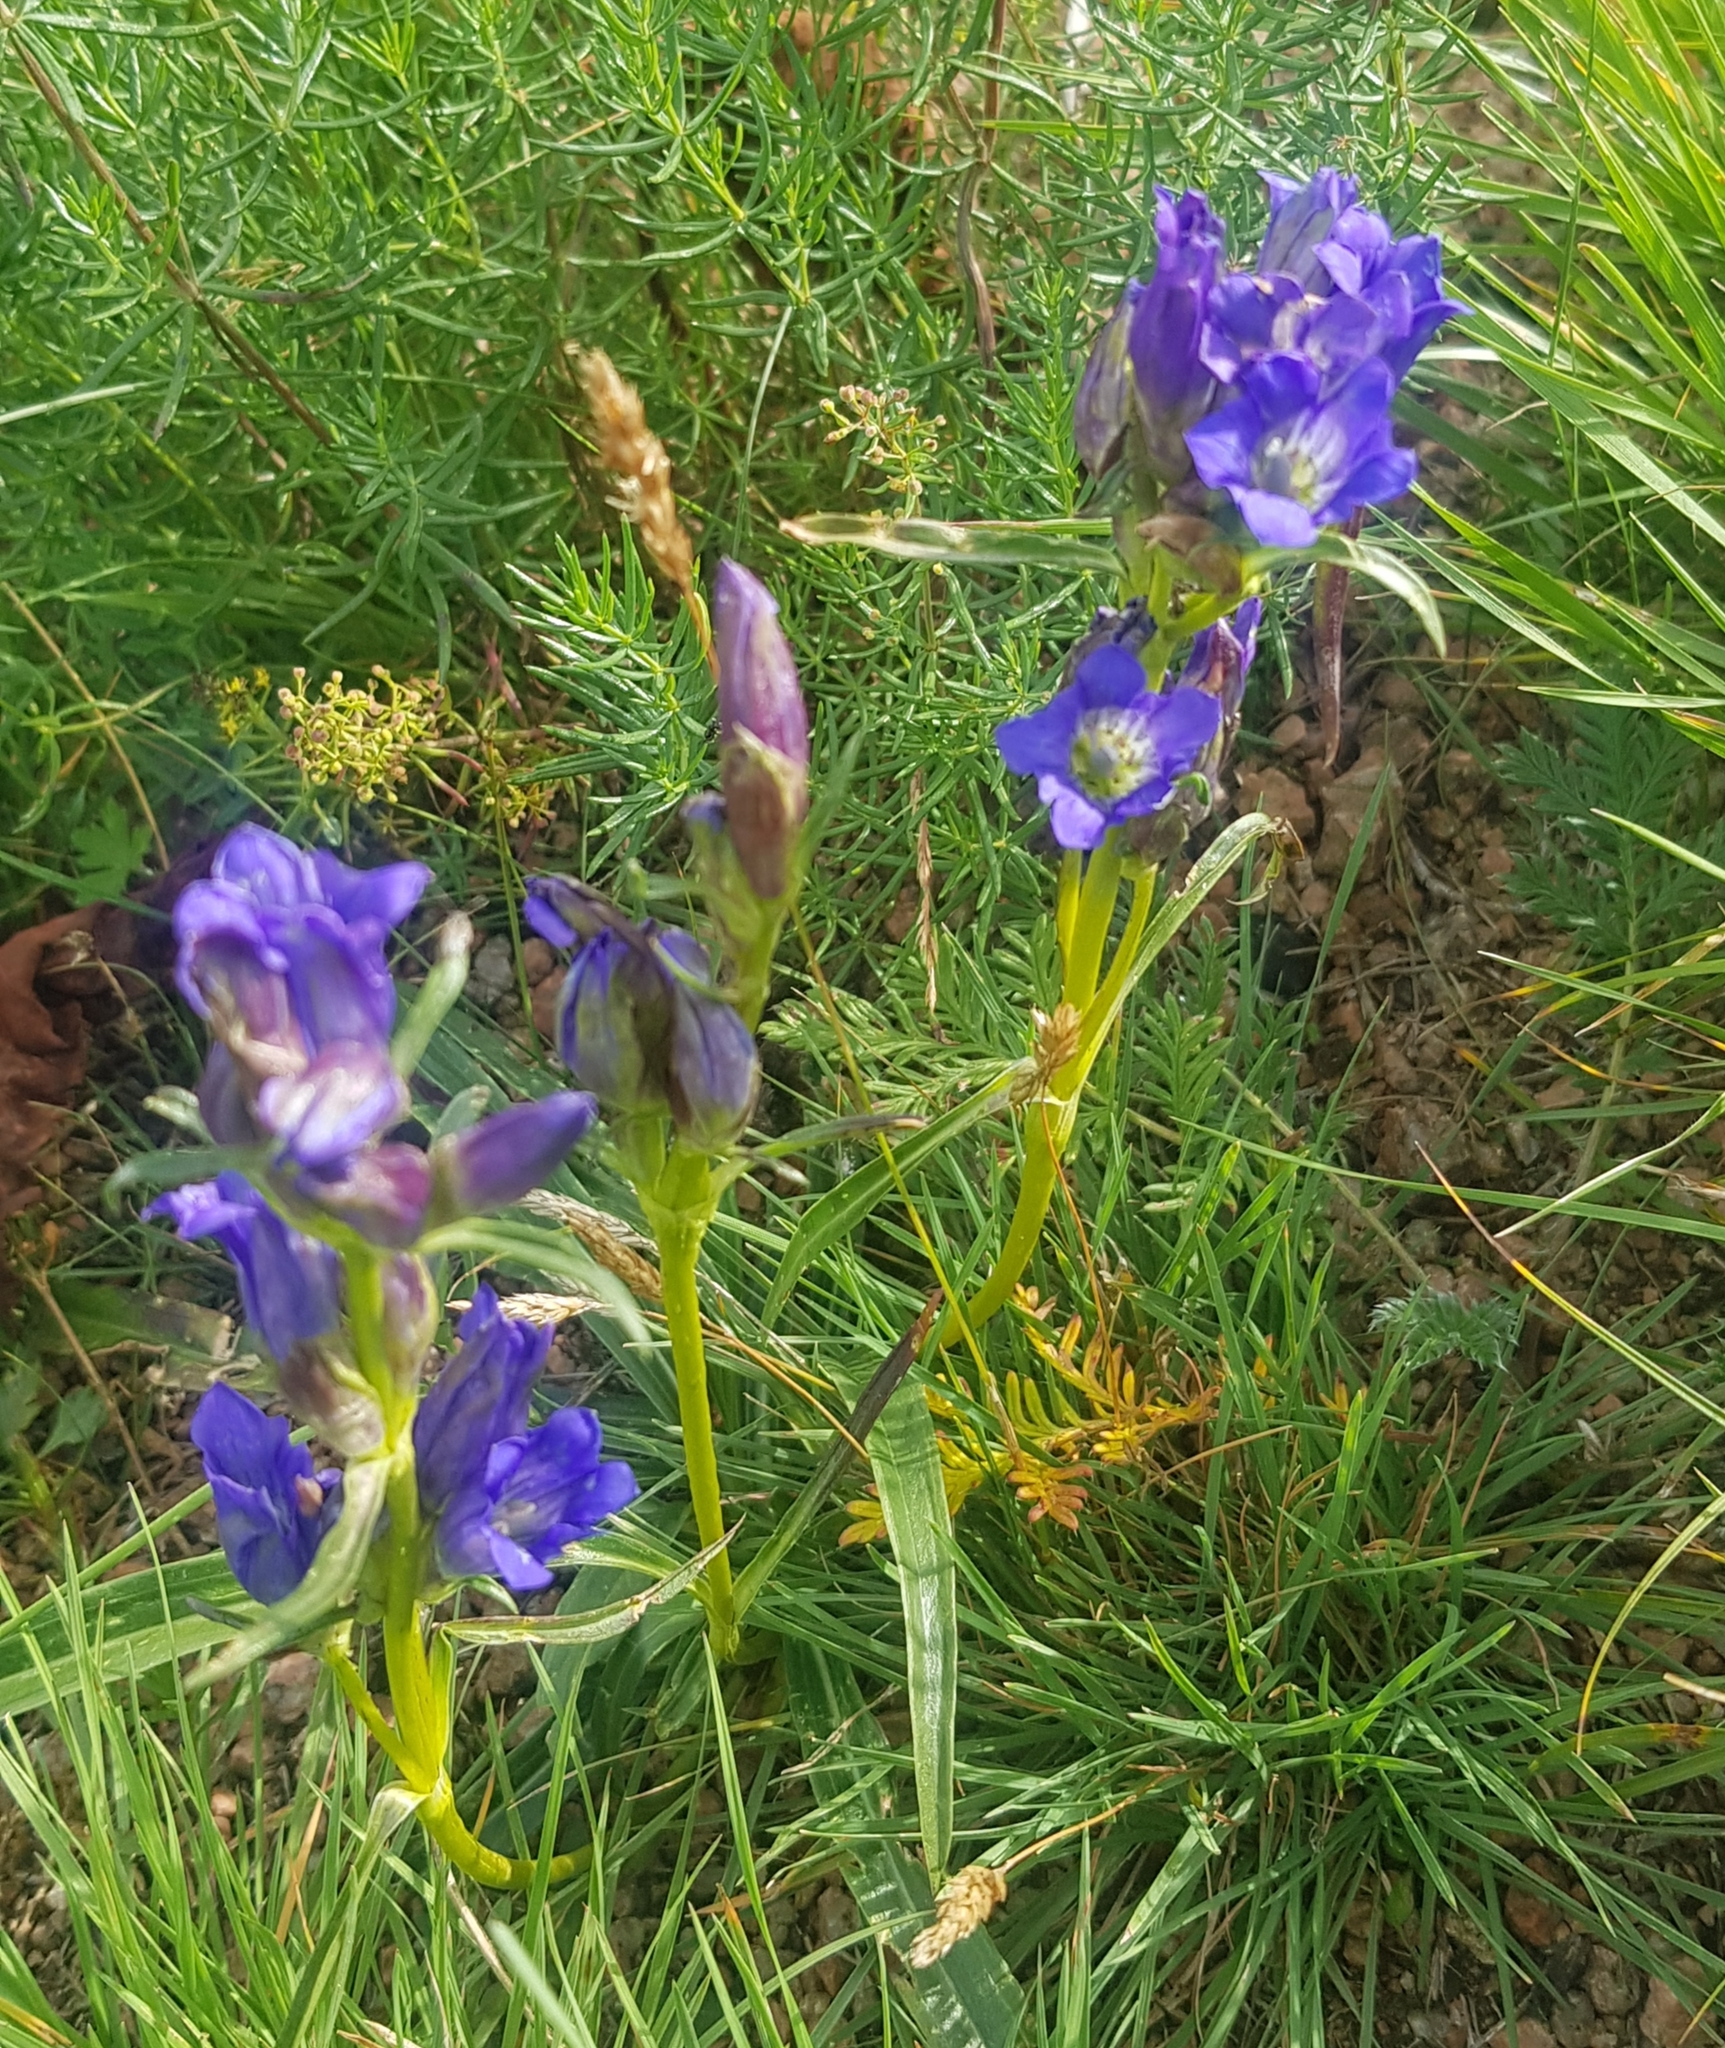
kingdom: Plantae
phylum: Tracheophyta
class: Magnoliopsida
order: Gentianales
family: Gentianaceae
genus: Gentiana
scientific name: Gentiana decumbens
